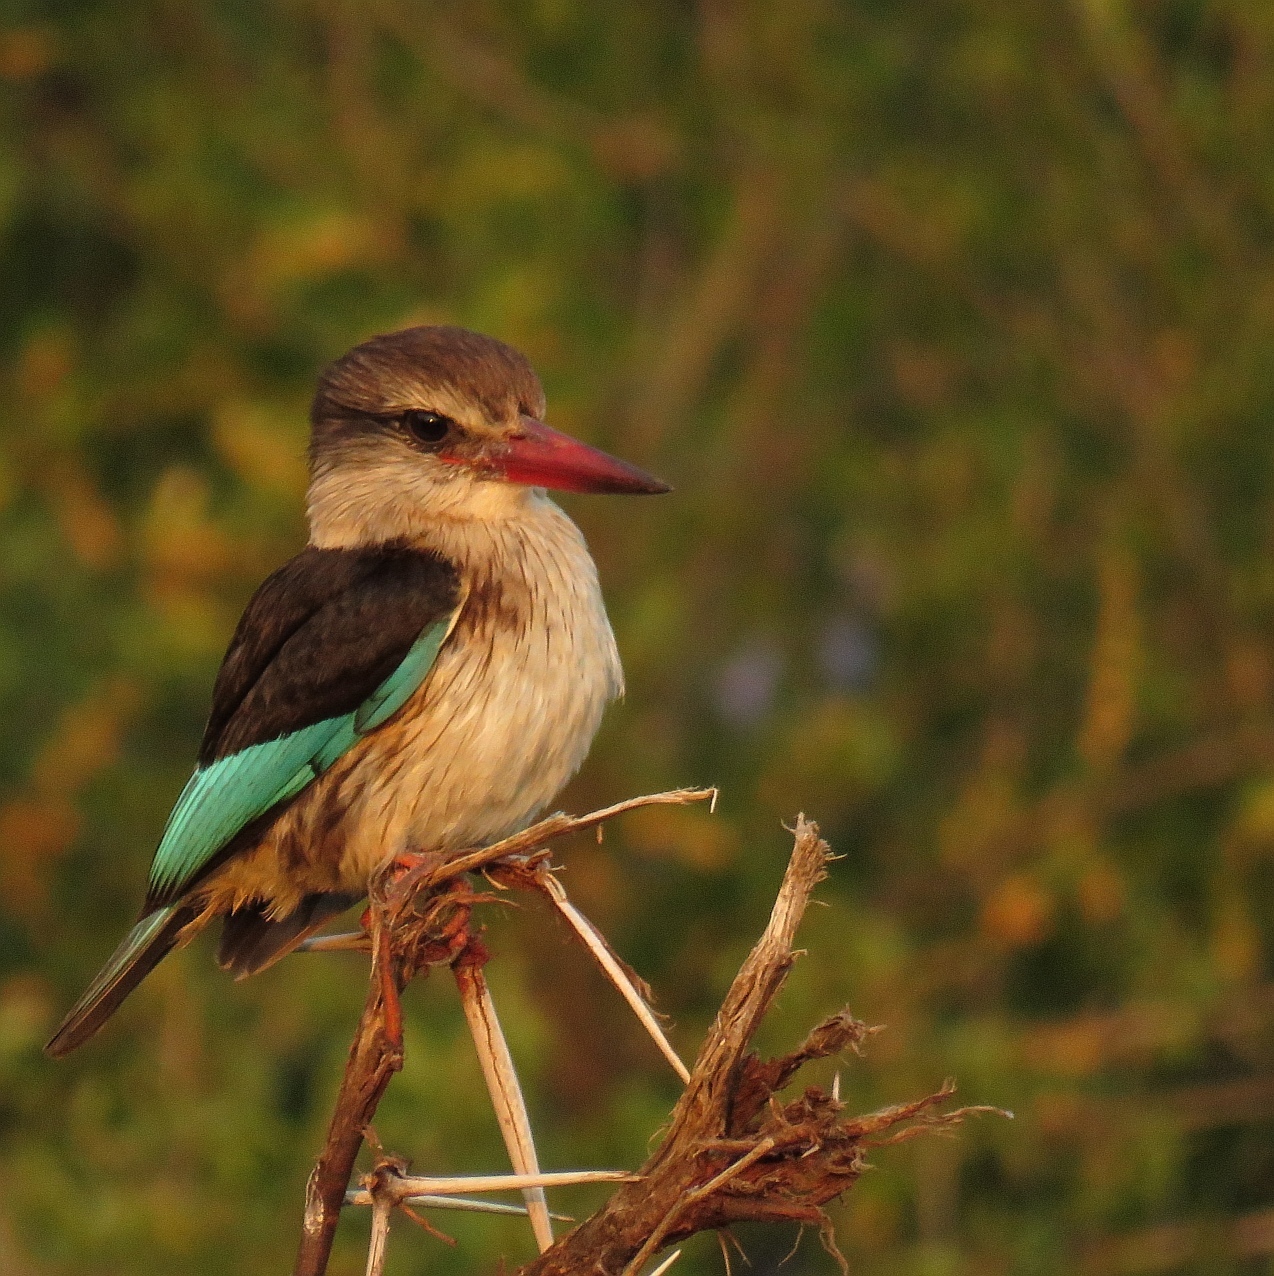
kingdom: Animalia
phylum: Chordata
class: Aves
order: Coraciiformes
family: Alcedinidae
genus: Halcyon
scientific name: Halcyon albiventris
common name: Brown-hooded kingfisher
